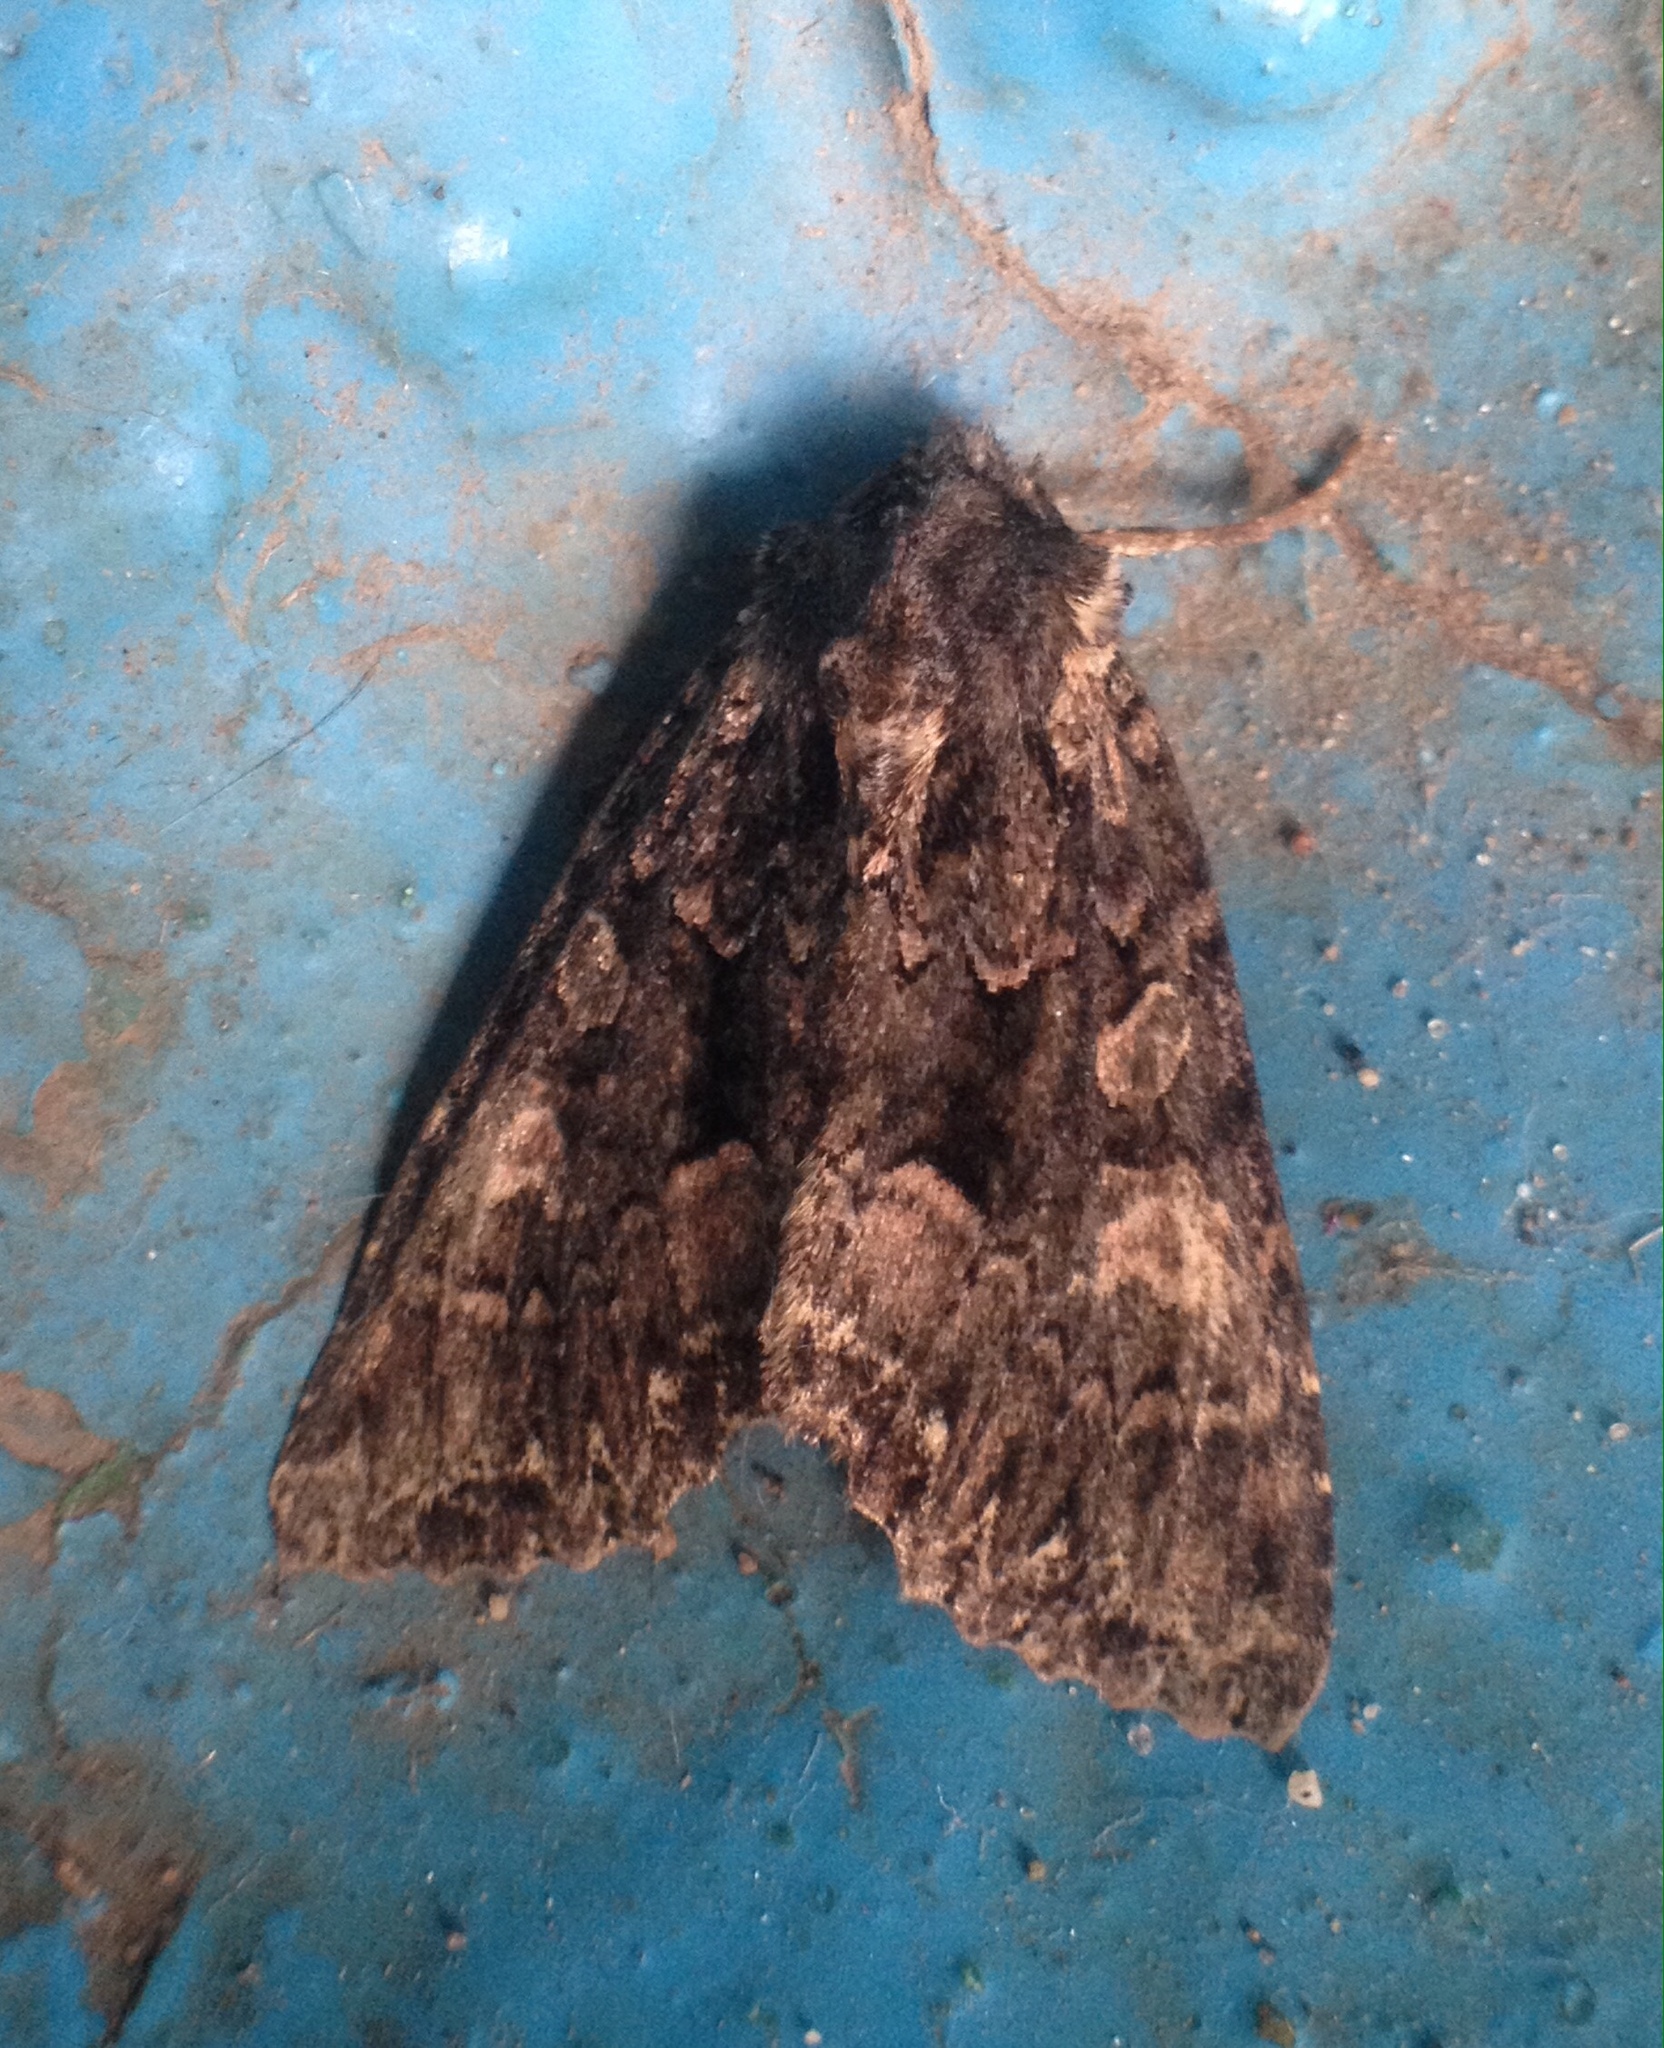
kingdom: Animalia
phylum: Arthropoda
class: Insecta
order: Lepidoptera
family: Noctuidae
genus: Mniotype
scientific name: Mniotype satura
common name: Beautiful arches
